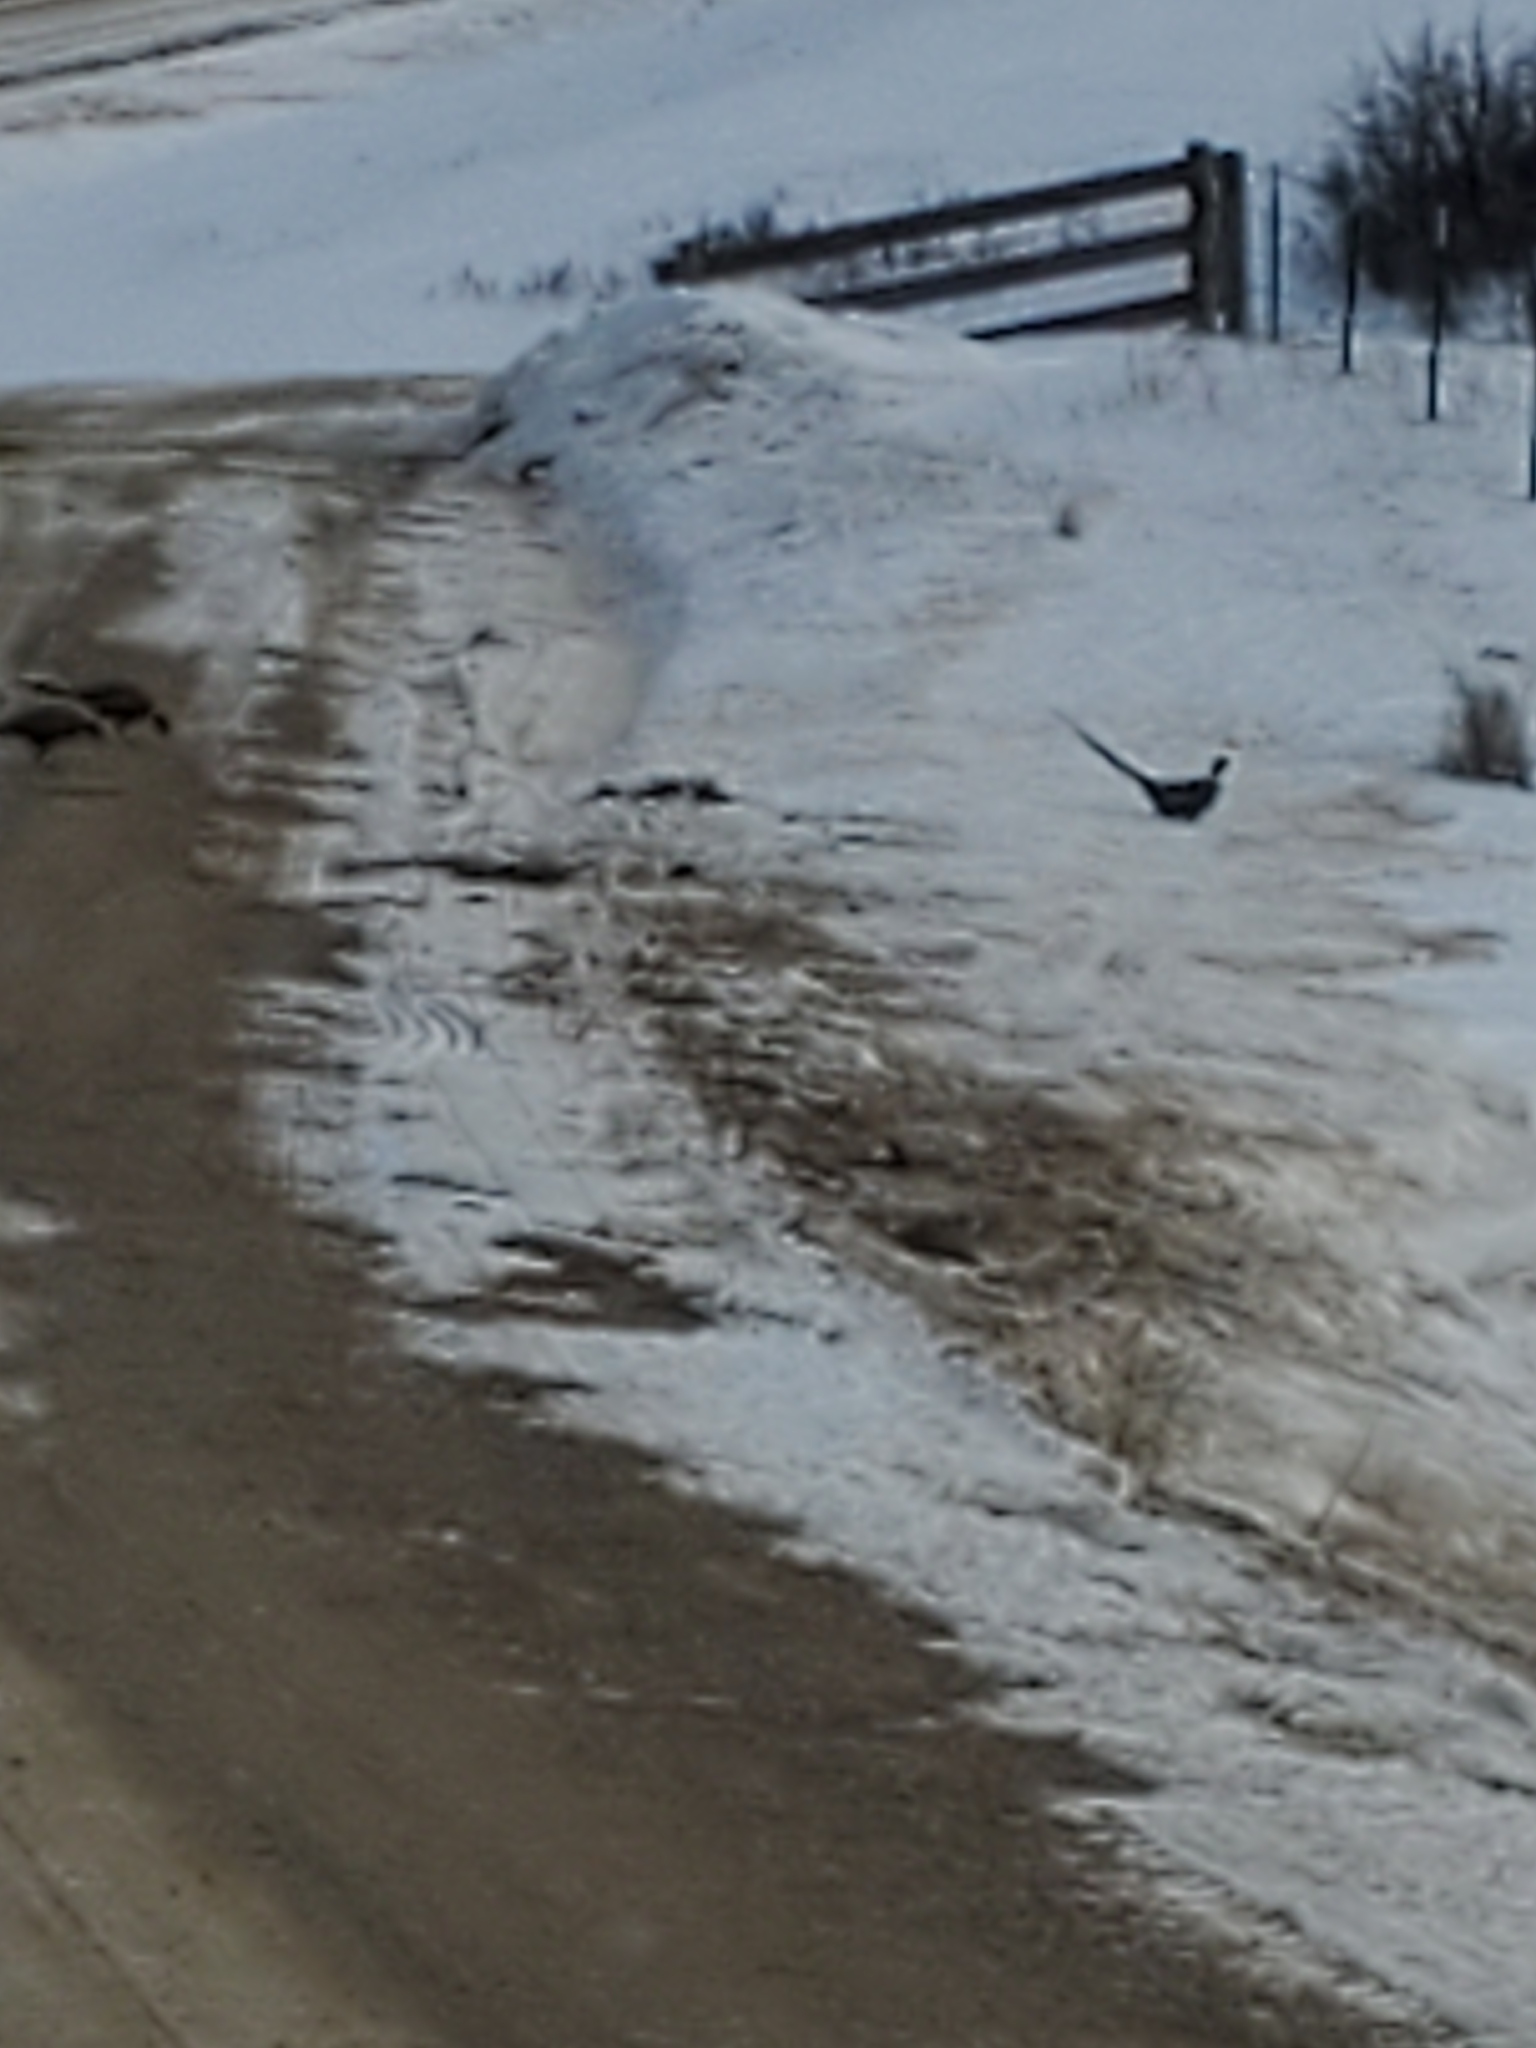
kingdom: Animalia
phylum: Chordata
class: Aves
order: Galliformes
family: Phasianidae
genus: Phasianus
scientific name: Phasianus colchicus
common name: Common pheasant
